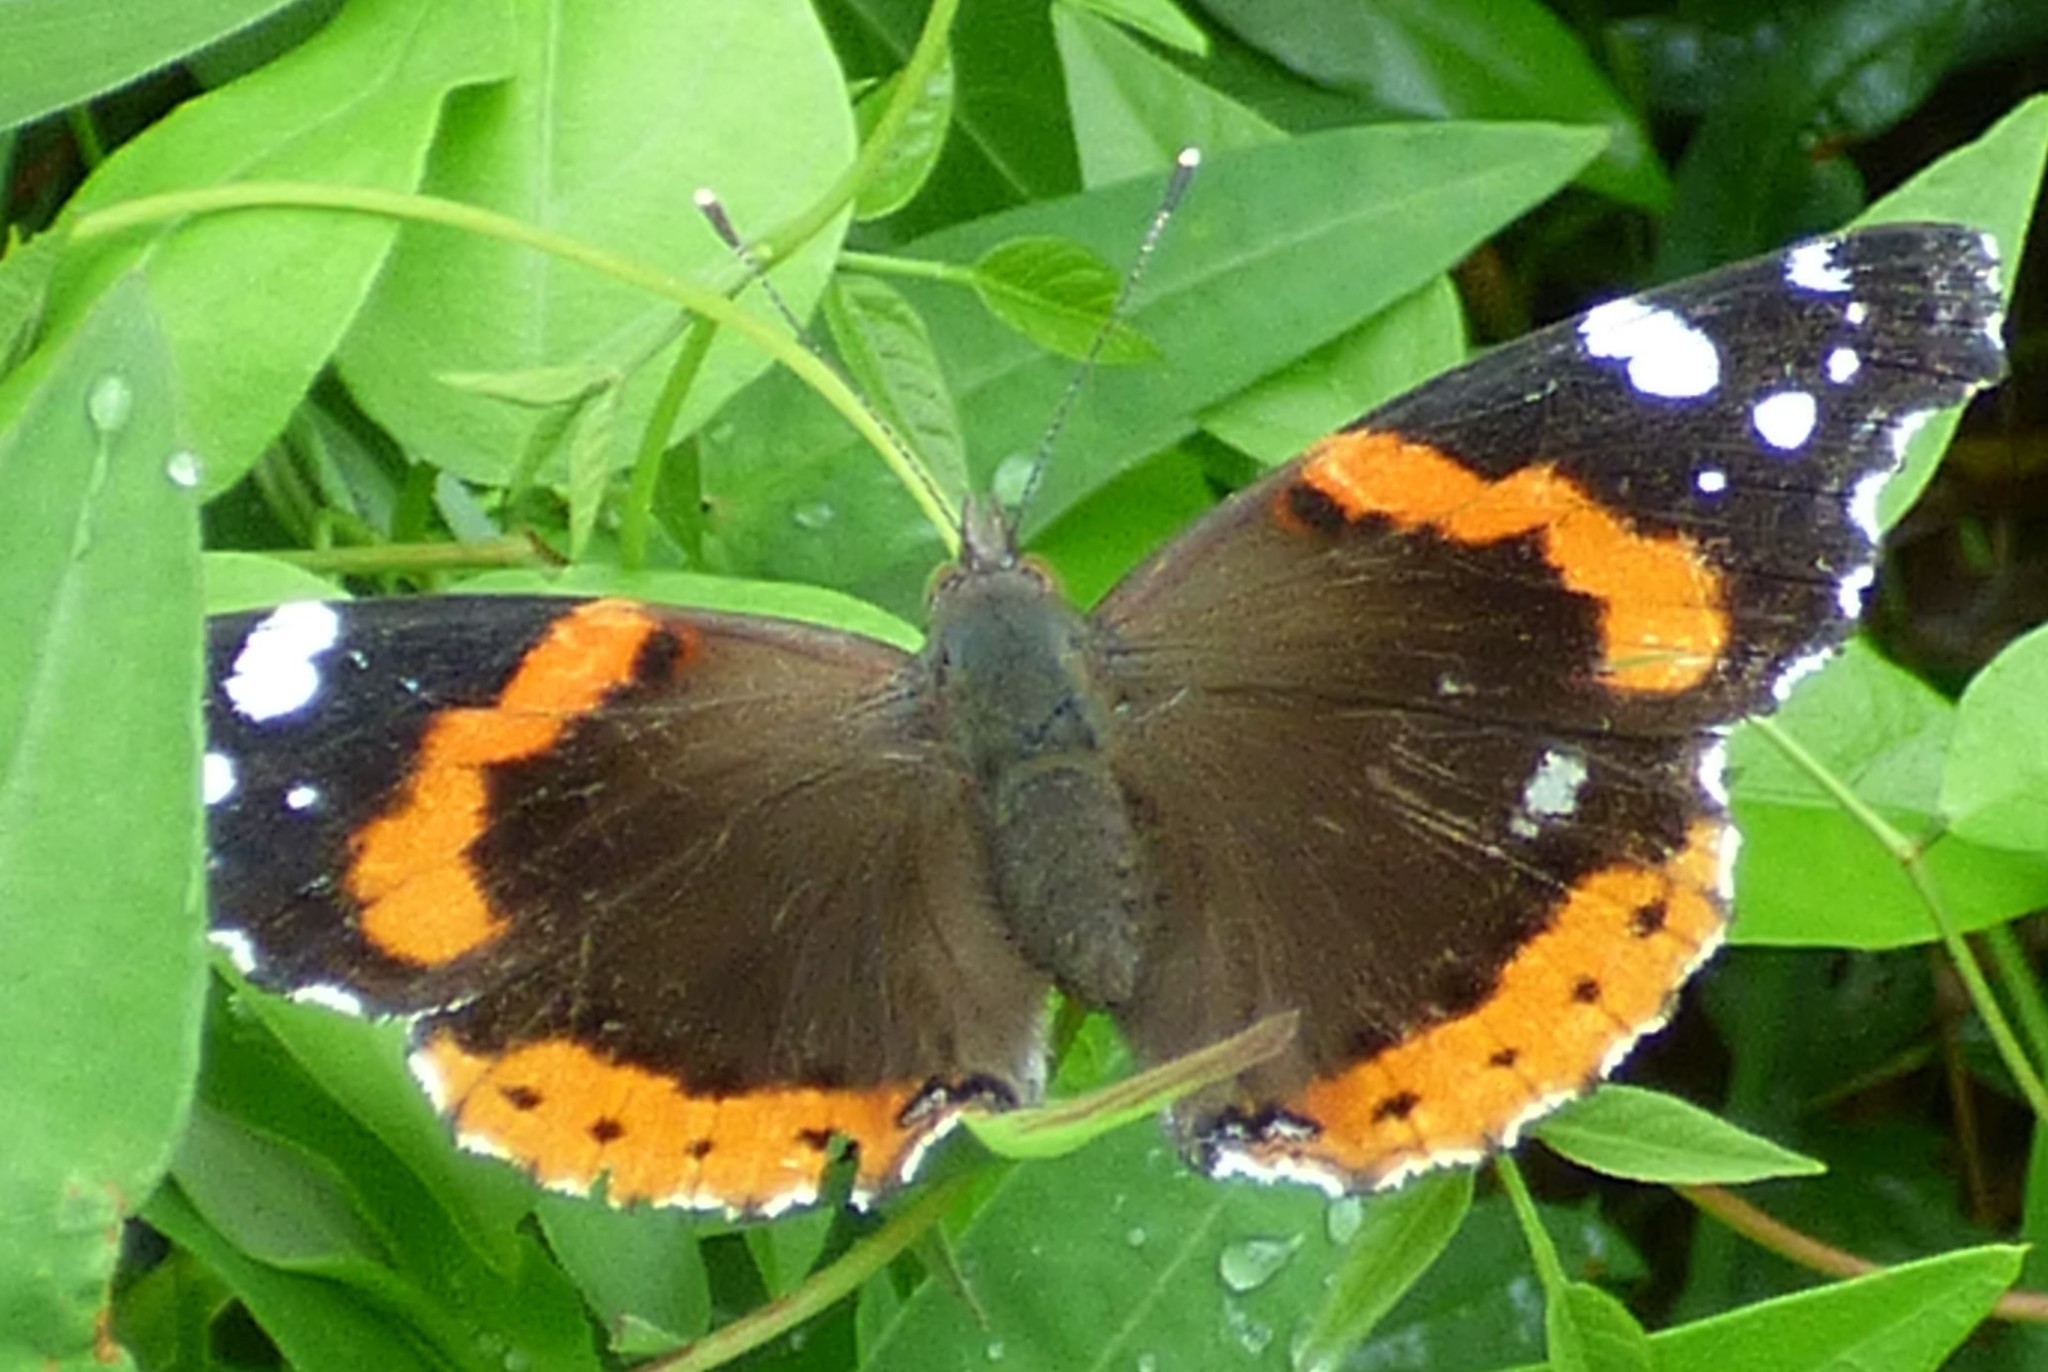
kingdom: Animalia
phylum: Arthropoda
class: Insecta
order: Lepidoptera
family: Nymphalidae
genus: Vanessa
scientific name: Vanessa atalanta
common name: Red admiral
